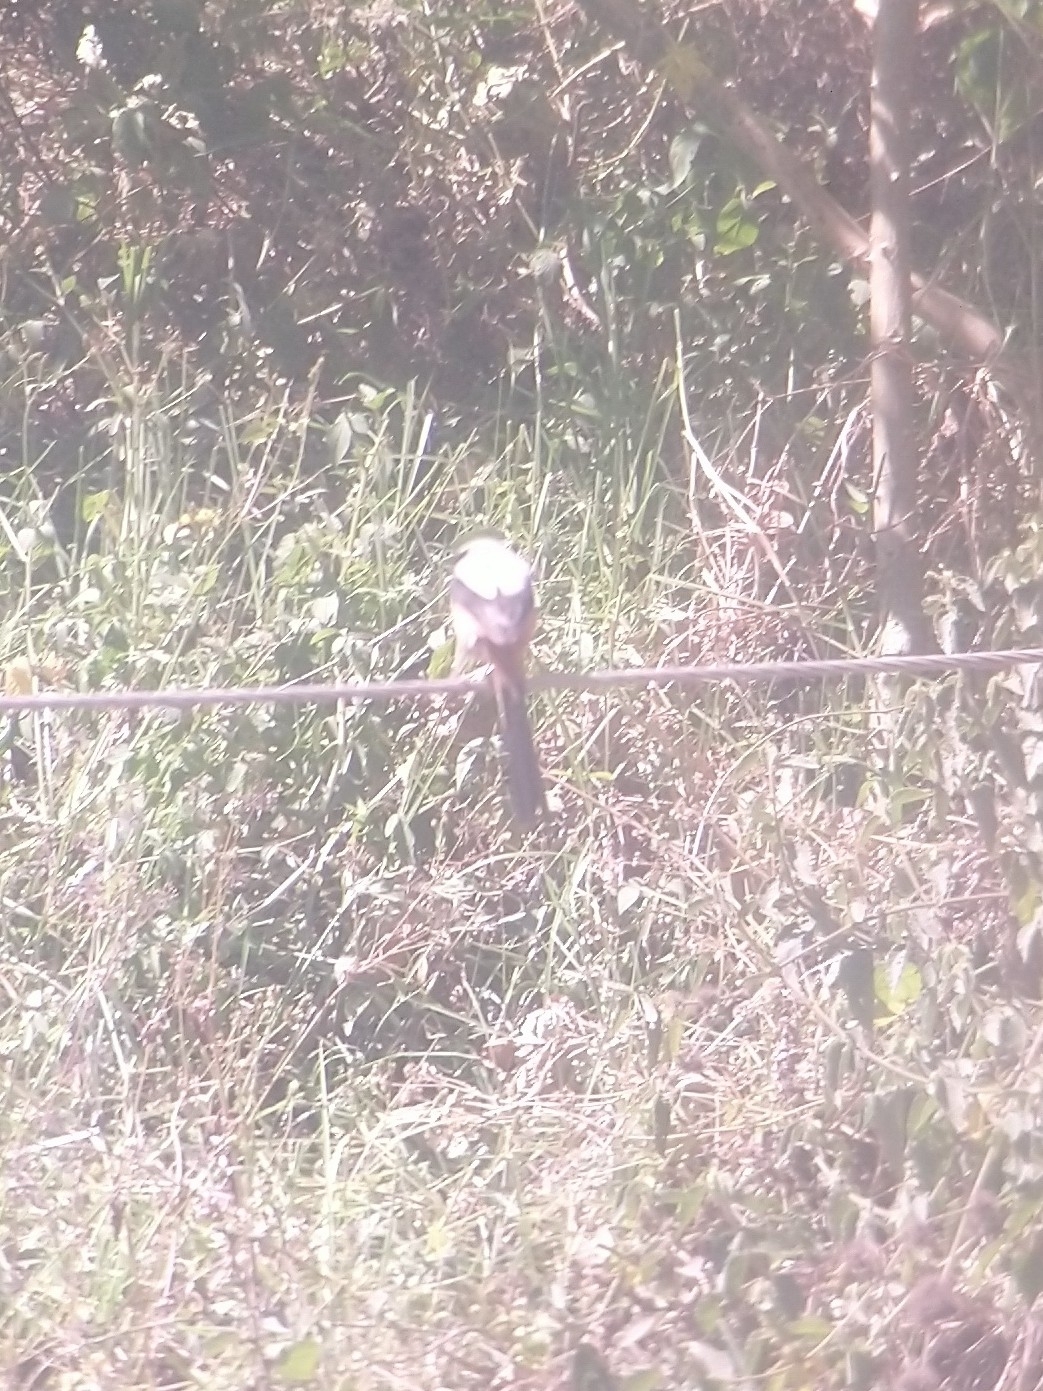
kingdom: Animalia
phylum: Chordata
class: Aves
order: Passeriformes
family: Laniidae
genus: Lanius
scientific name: Lanius schach
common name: Long-tailed shrike
